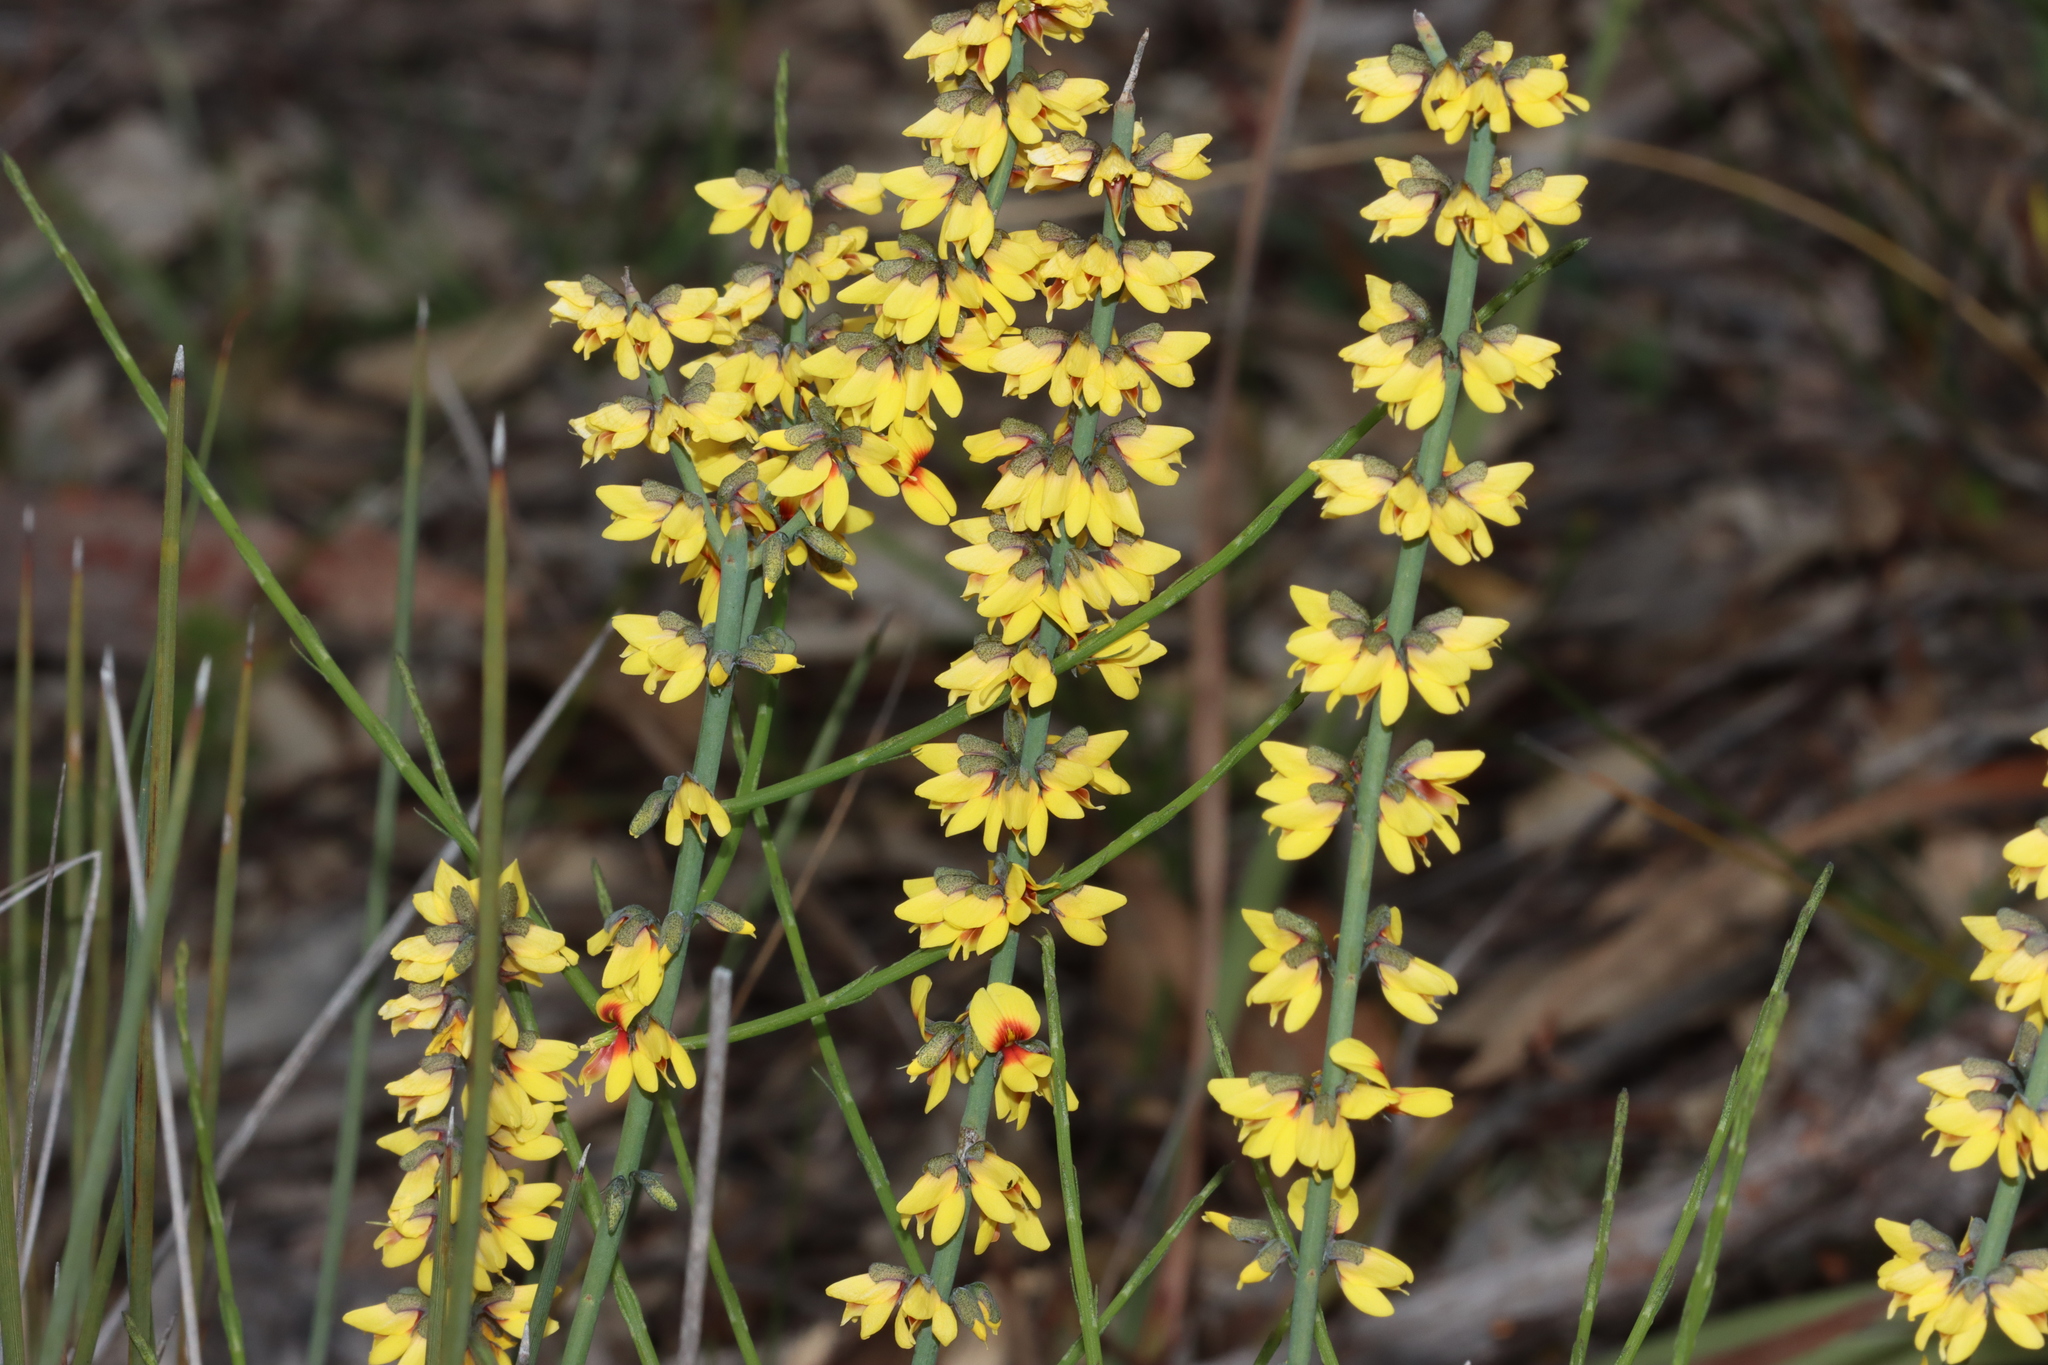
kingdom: Plantae
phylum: Tracheophyta
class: Magnoliopsida
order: Fabales
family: Fabaceae
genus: Sphaerolobium
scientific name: Sphaerolobium medium
